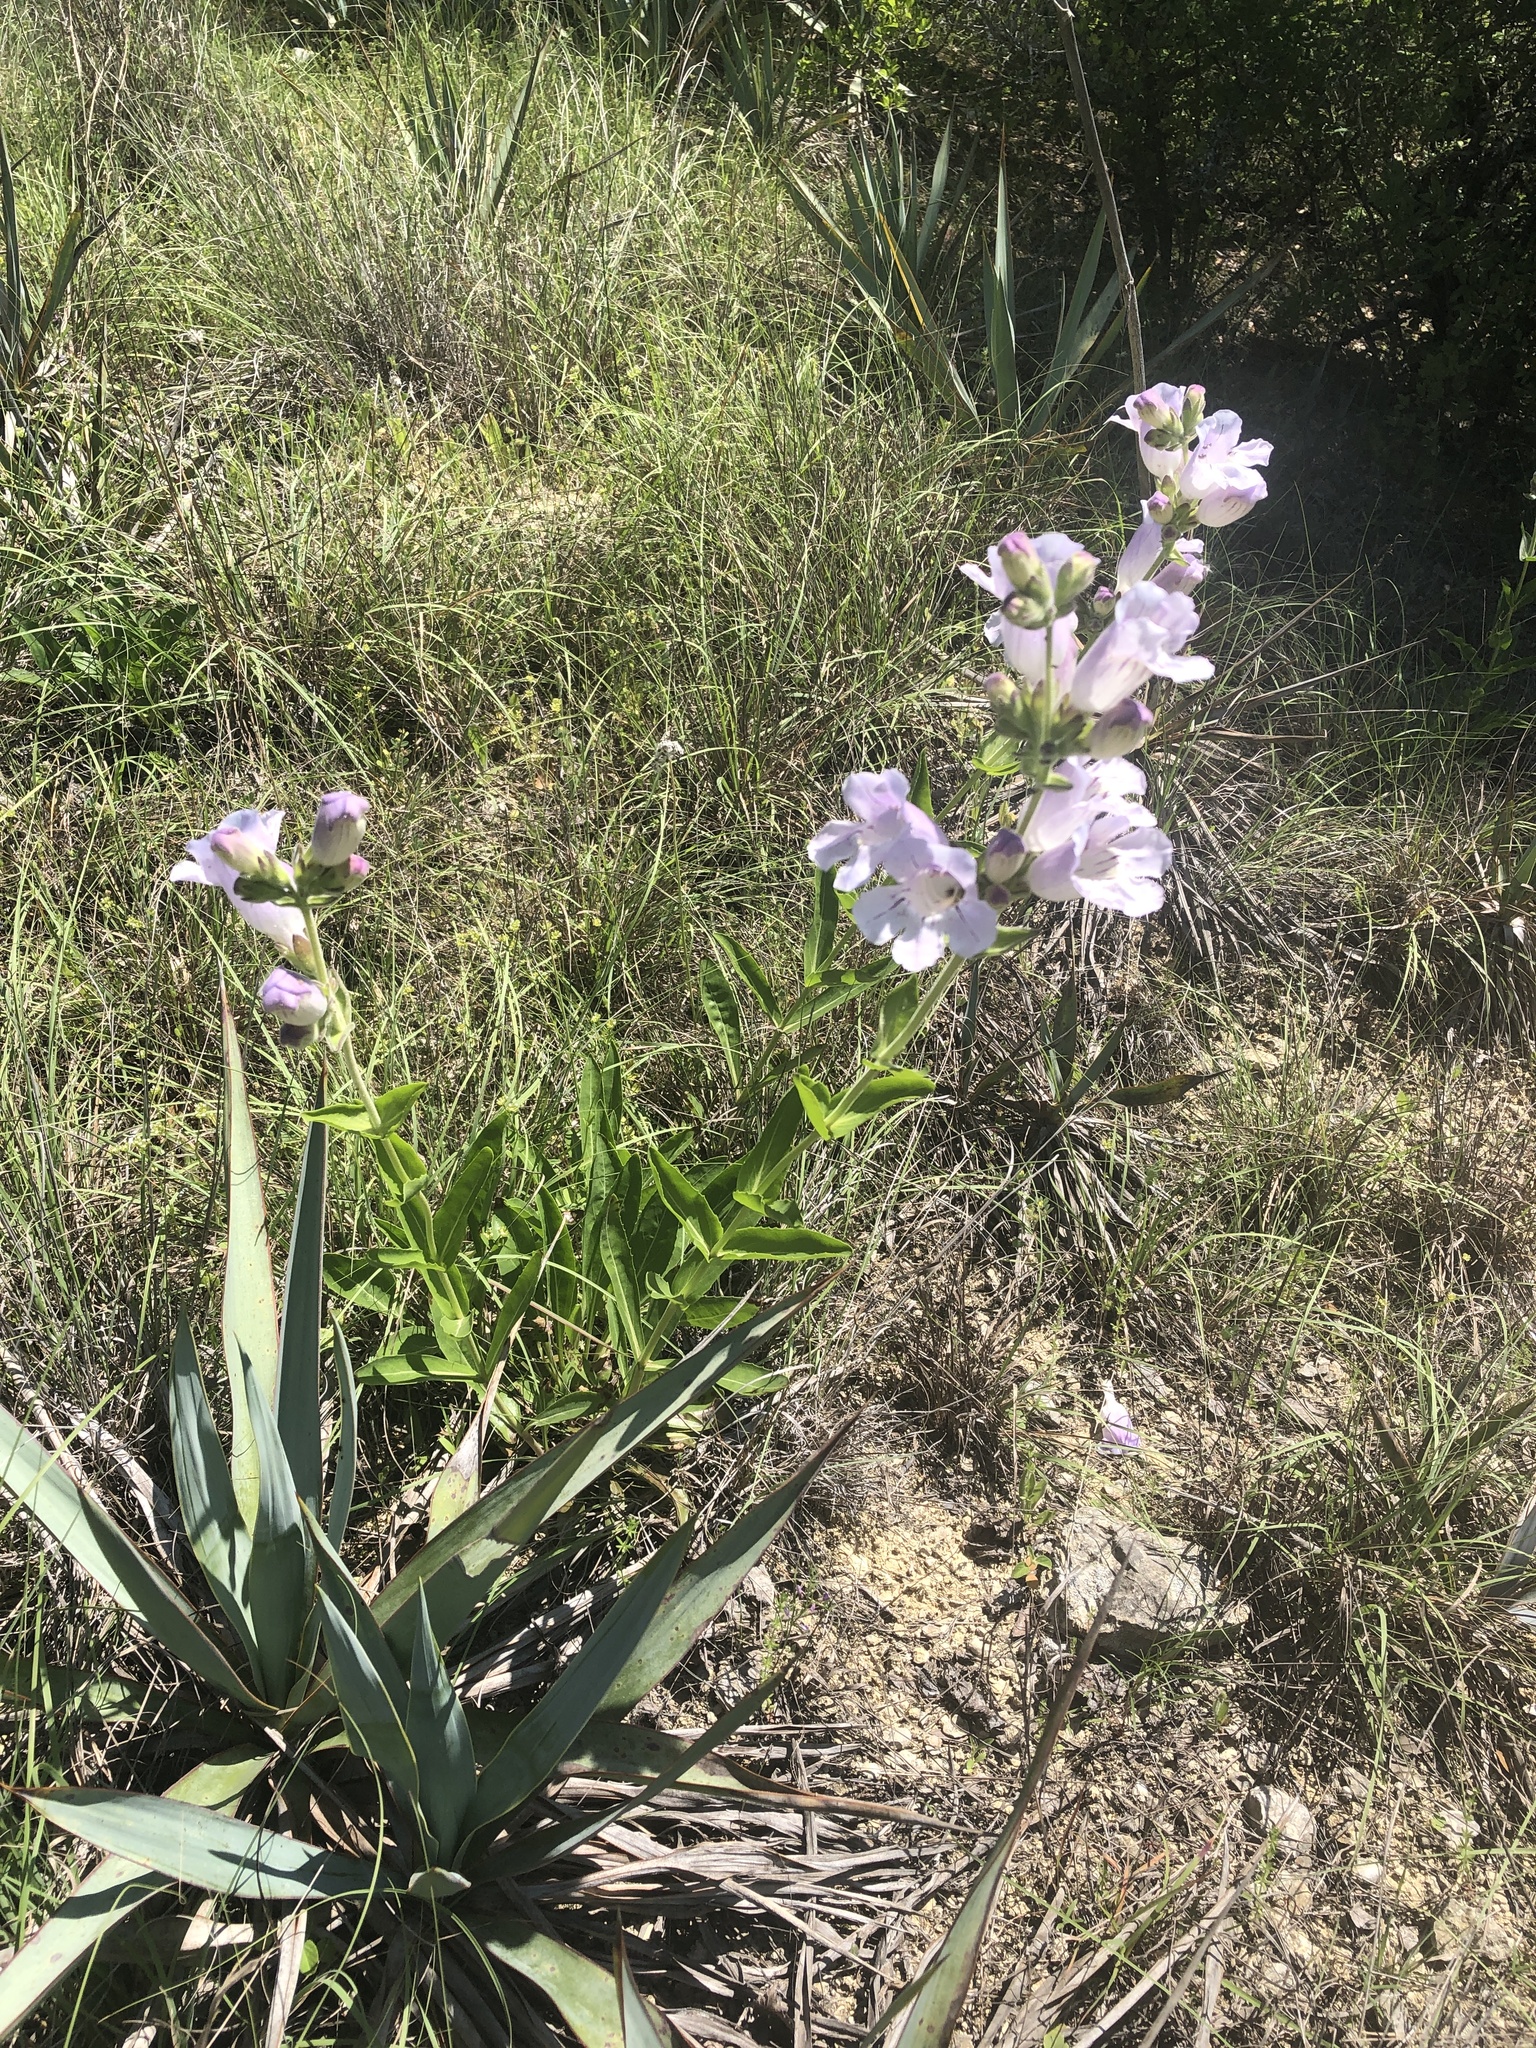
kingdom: Plantae
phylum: Tracheophyta
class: Magnoliopsida
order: Lamiales
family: Plantaginaceae
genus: Penstemon
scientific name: Penstemon cobaea
